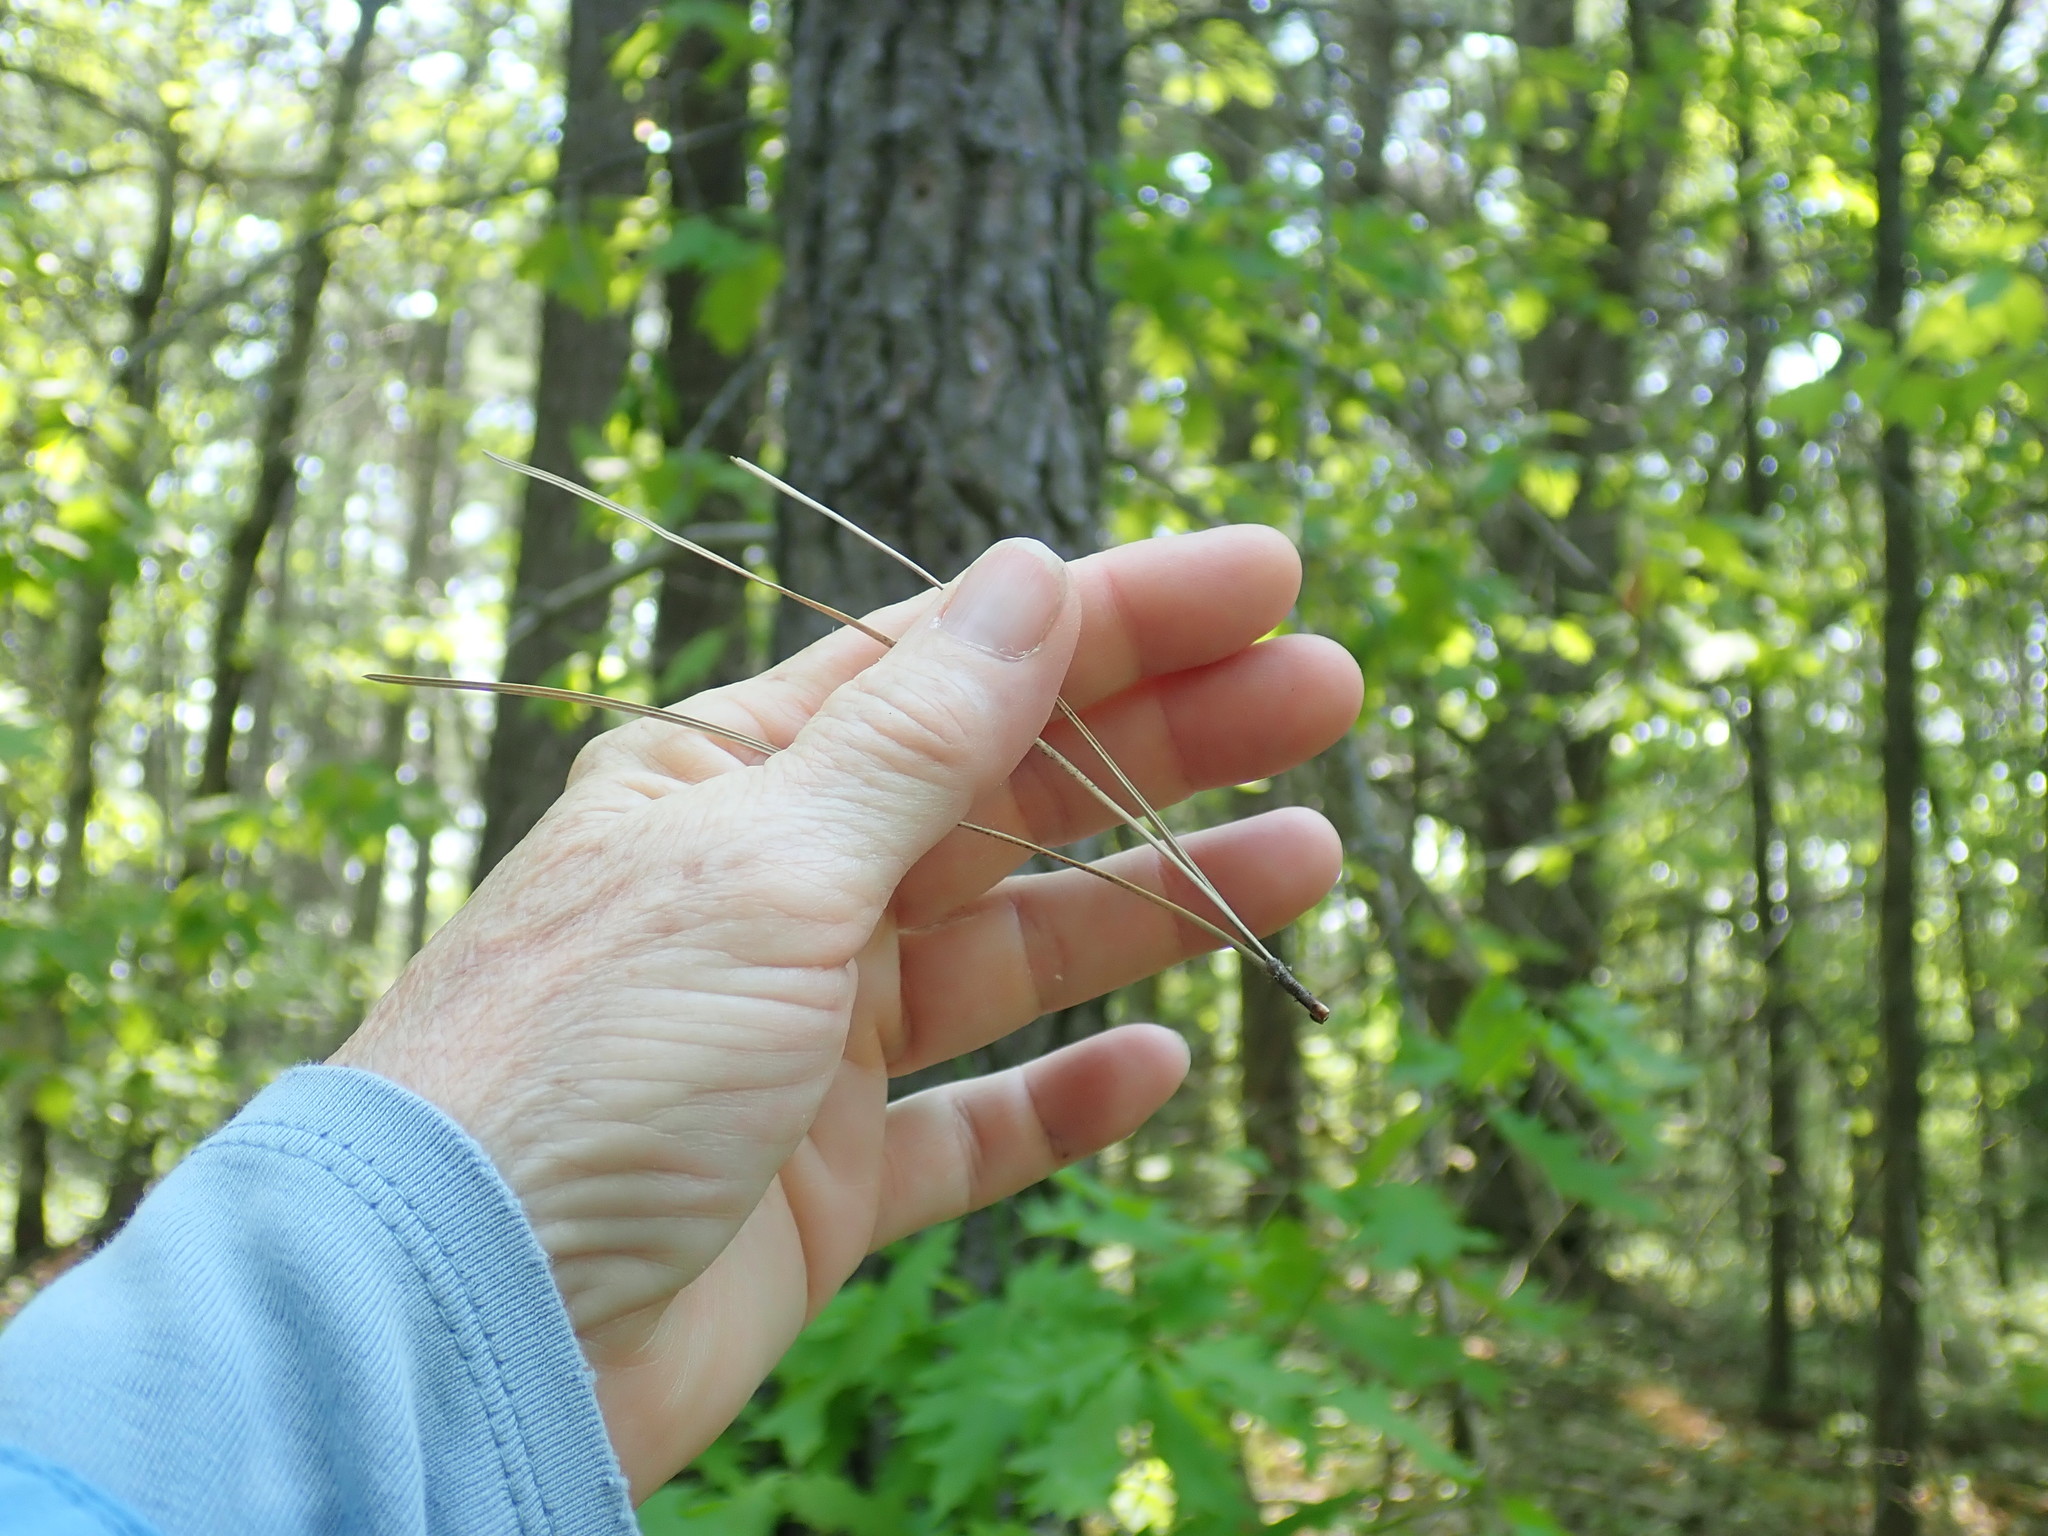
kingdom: Plantae
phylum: Tracheophyta
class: Pinopsida
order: Pinales
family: Pinaceae
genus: Pinus
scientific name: Pinus rigida
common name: Pitch pine
